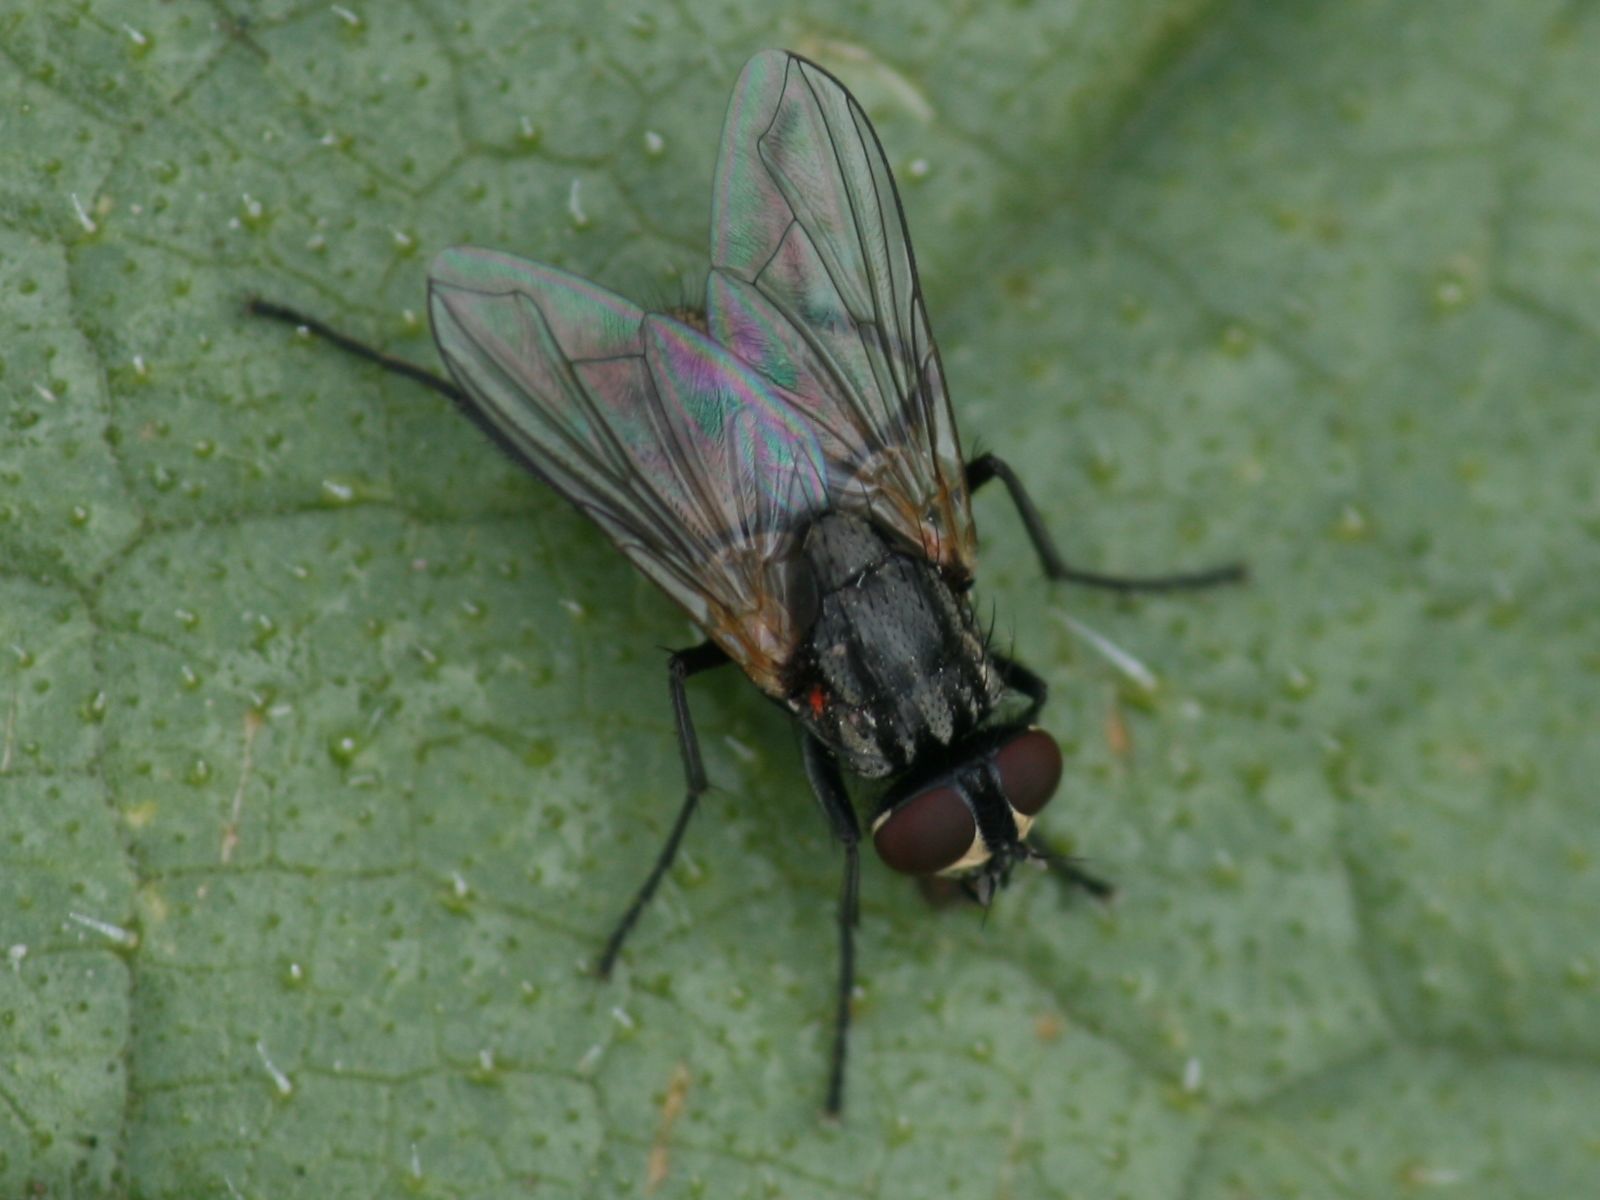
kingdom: Animalia
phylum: Arthropoda
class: Insecta
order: Diptera
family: Muscidae
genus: Musca
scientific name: Musca domestica
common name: House fly
